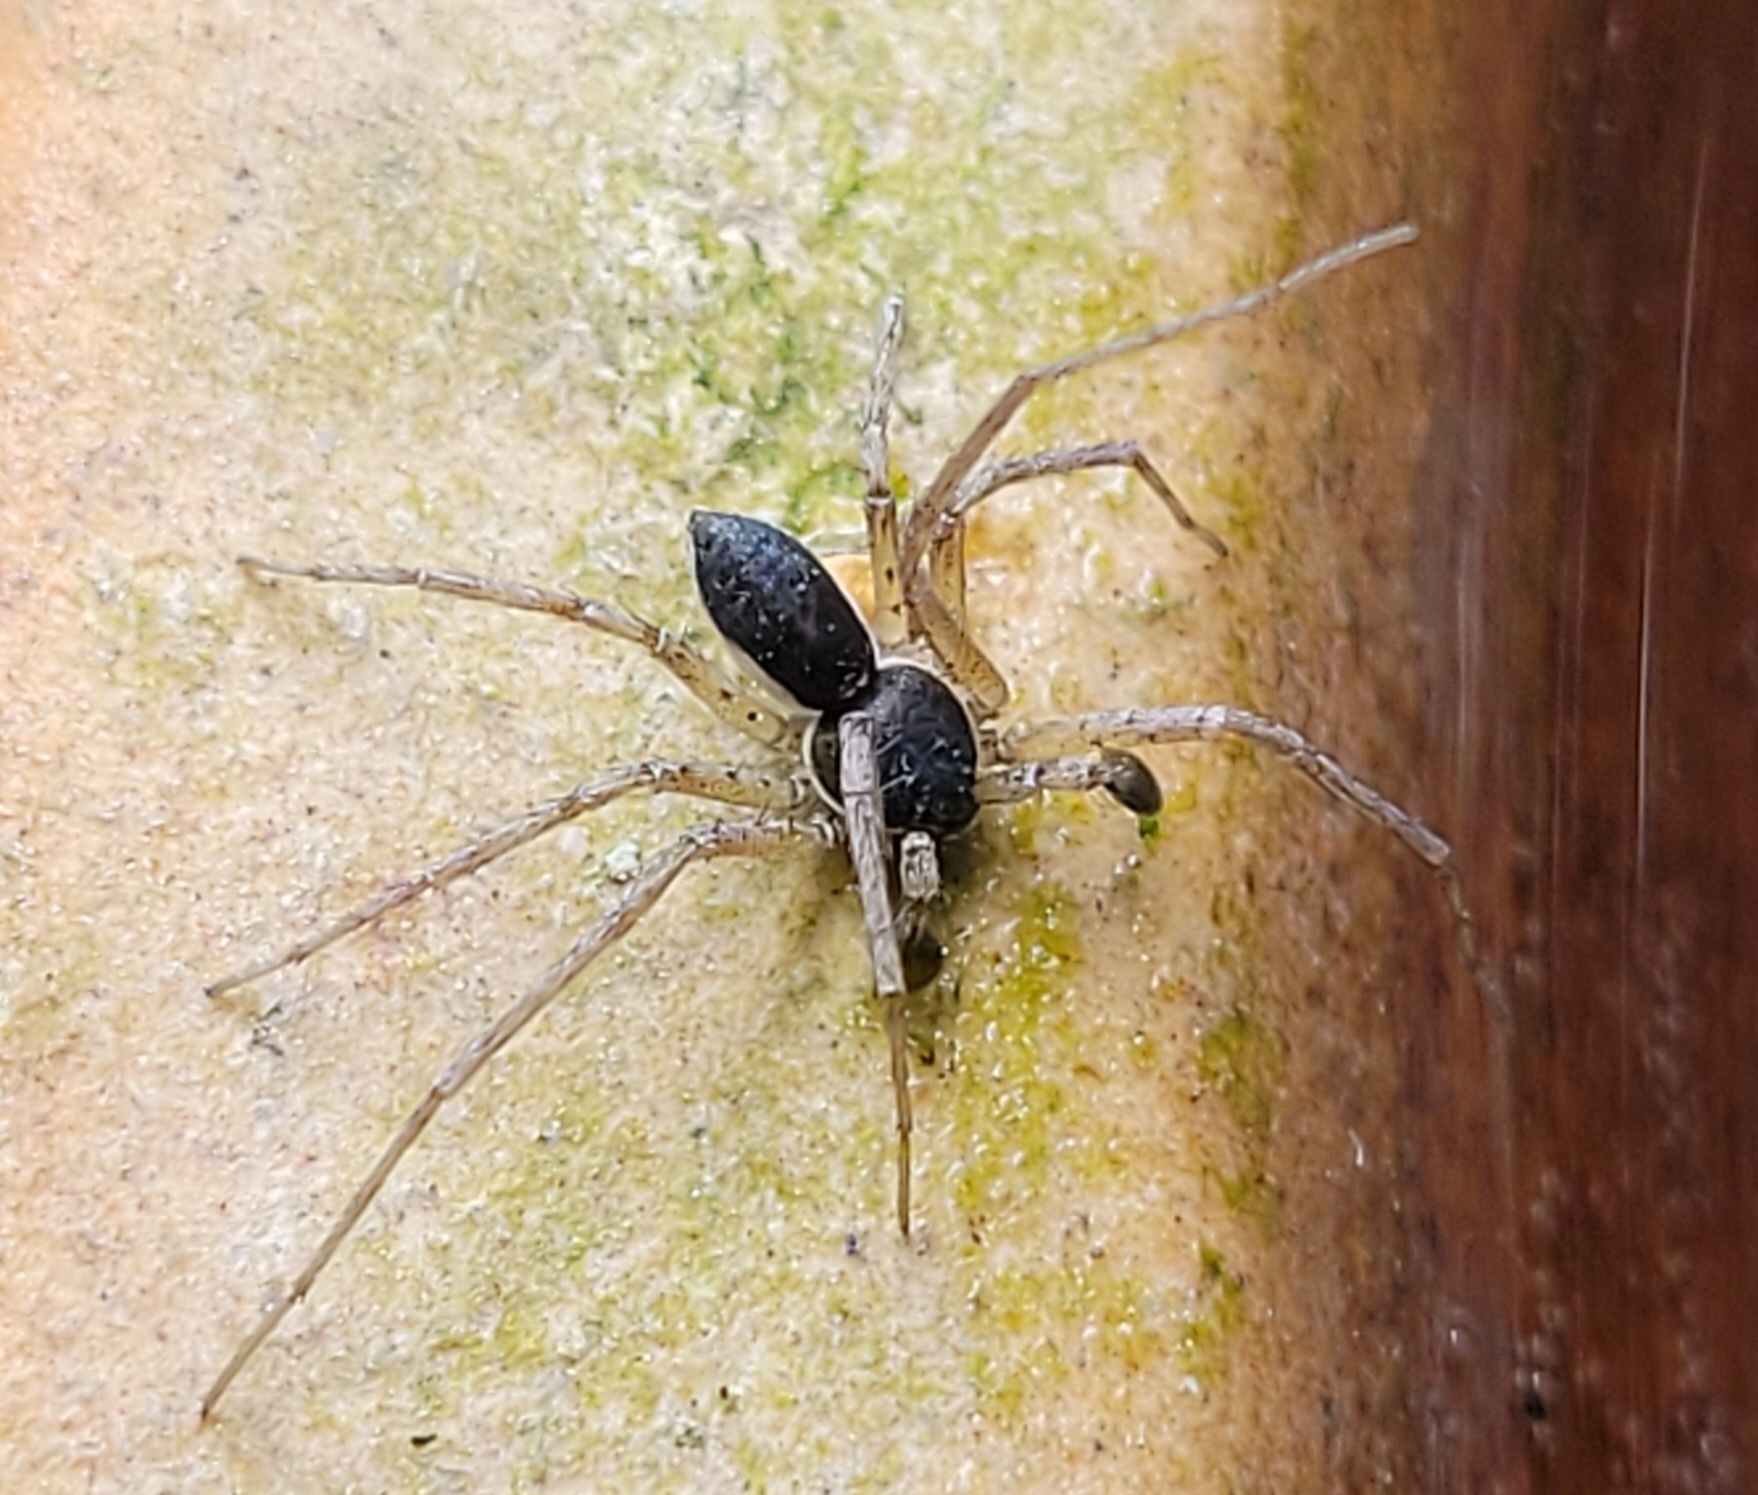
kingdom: Animalia
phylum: Arthropoda
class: Arachnida
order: Araneae
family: Philodromidae
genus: Philodromus
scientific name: Philodromus dispar
